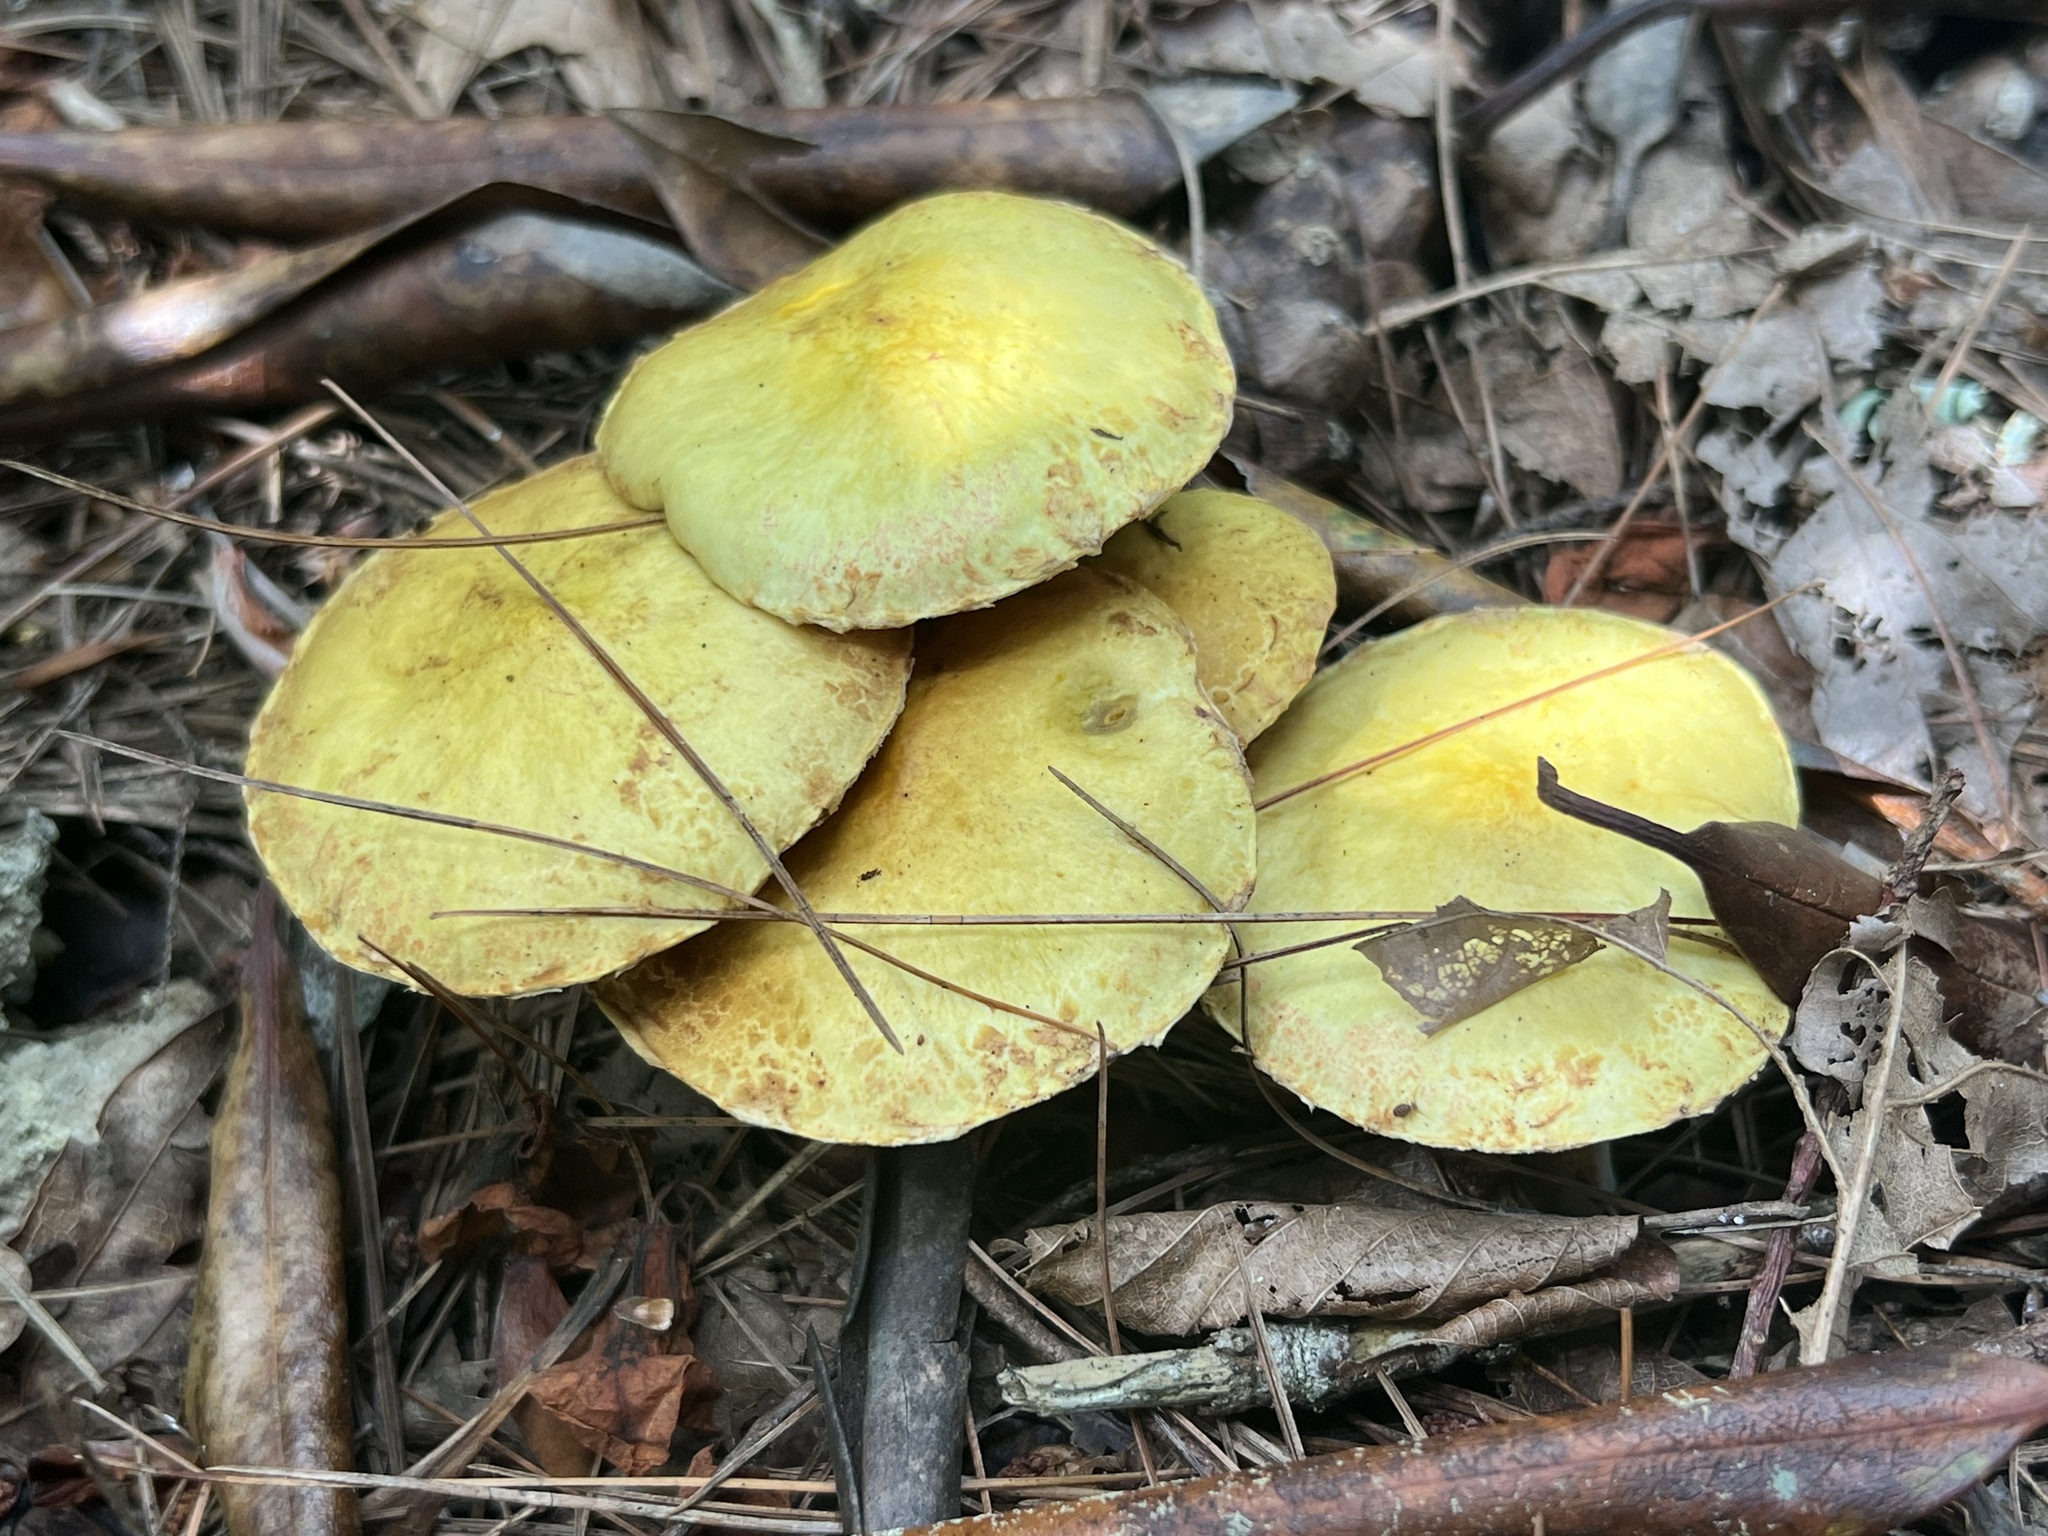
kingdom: Fungi
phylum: Basidiomycota
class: Agaricomycetes
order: Boletales
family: Suillaceae
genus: Suillus
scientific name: Suillus americanus
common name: Chicken fat mushroom
